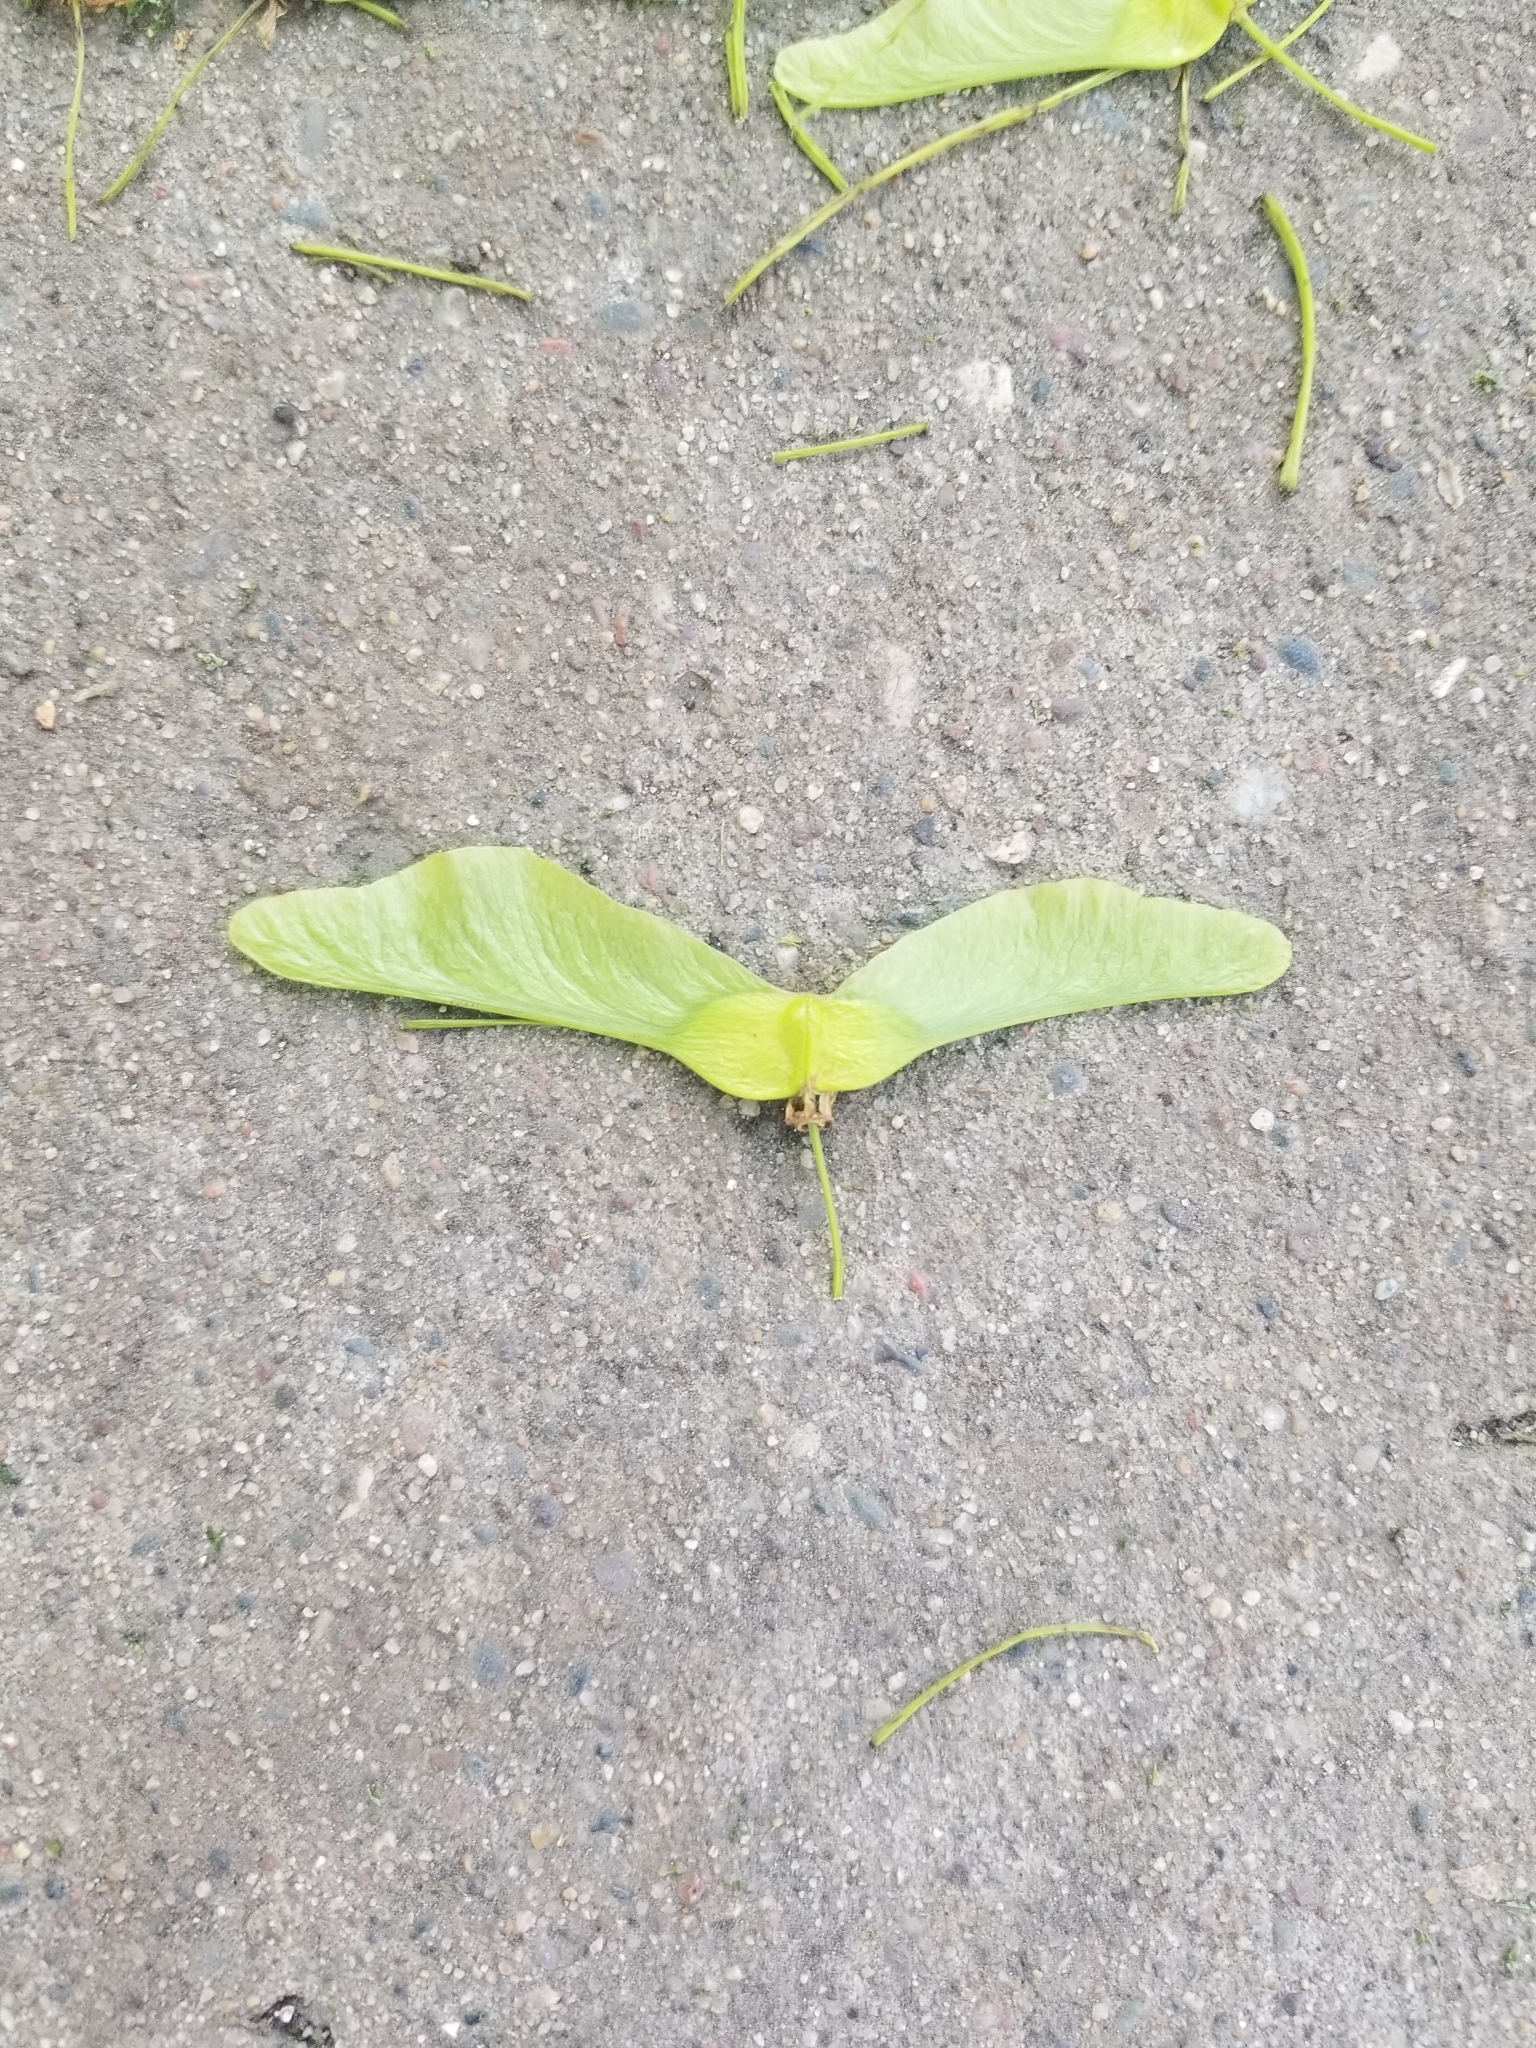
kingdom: Plantae
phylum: Tracheophyta
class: Magnoliopsida
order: Sapindales
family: Sapindaceae
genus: Acer
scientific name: Acer platanoides
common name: Norway maple
